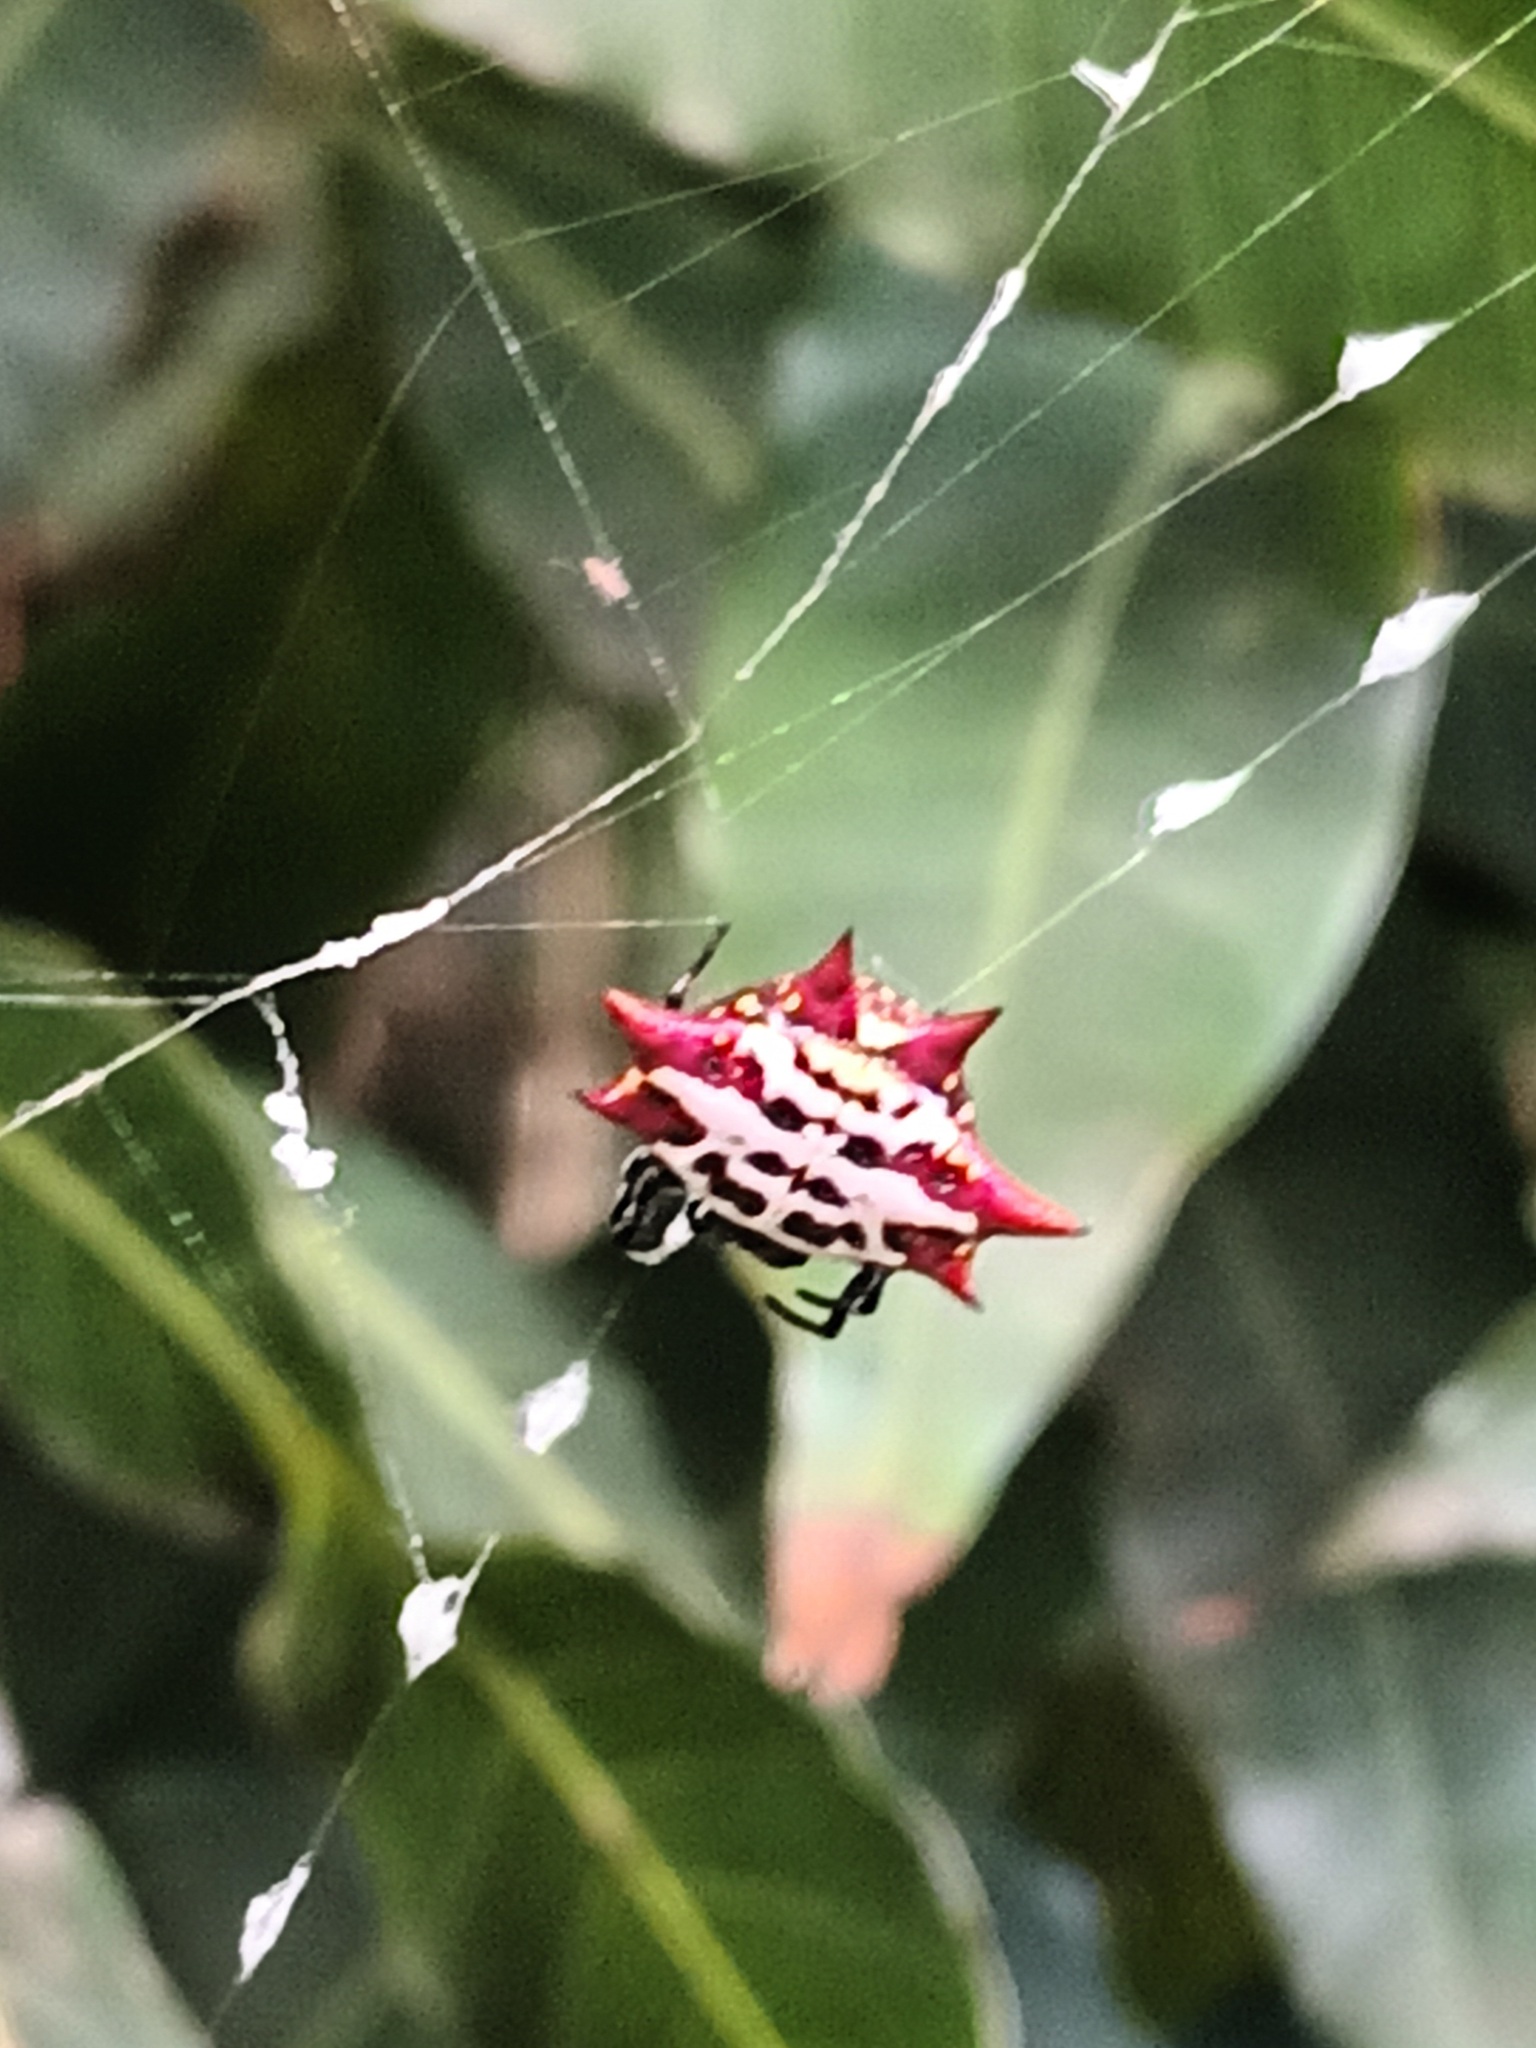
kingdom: Animalia
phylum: Arthropoda
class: Arachnida
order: Araneae
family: Araneidae
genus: Gasteracantha
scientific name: Gasteracantha cancriformis
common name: Orb weavers
